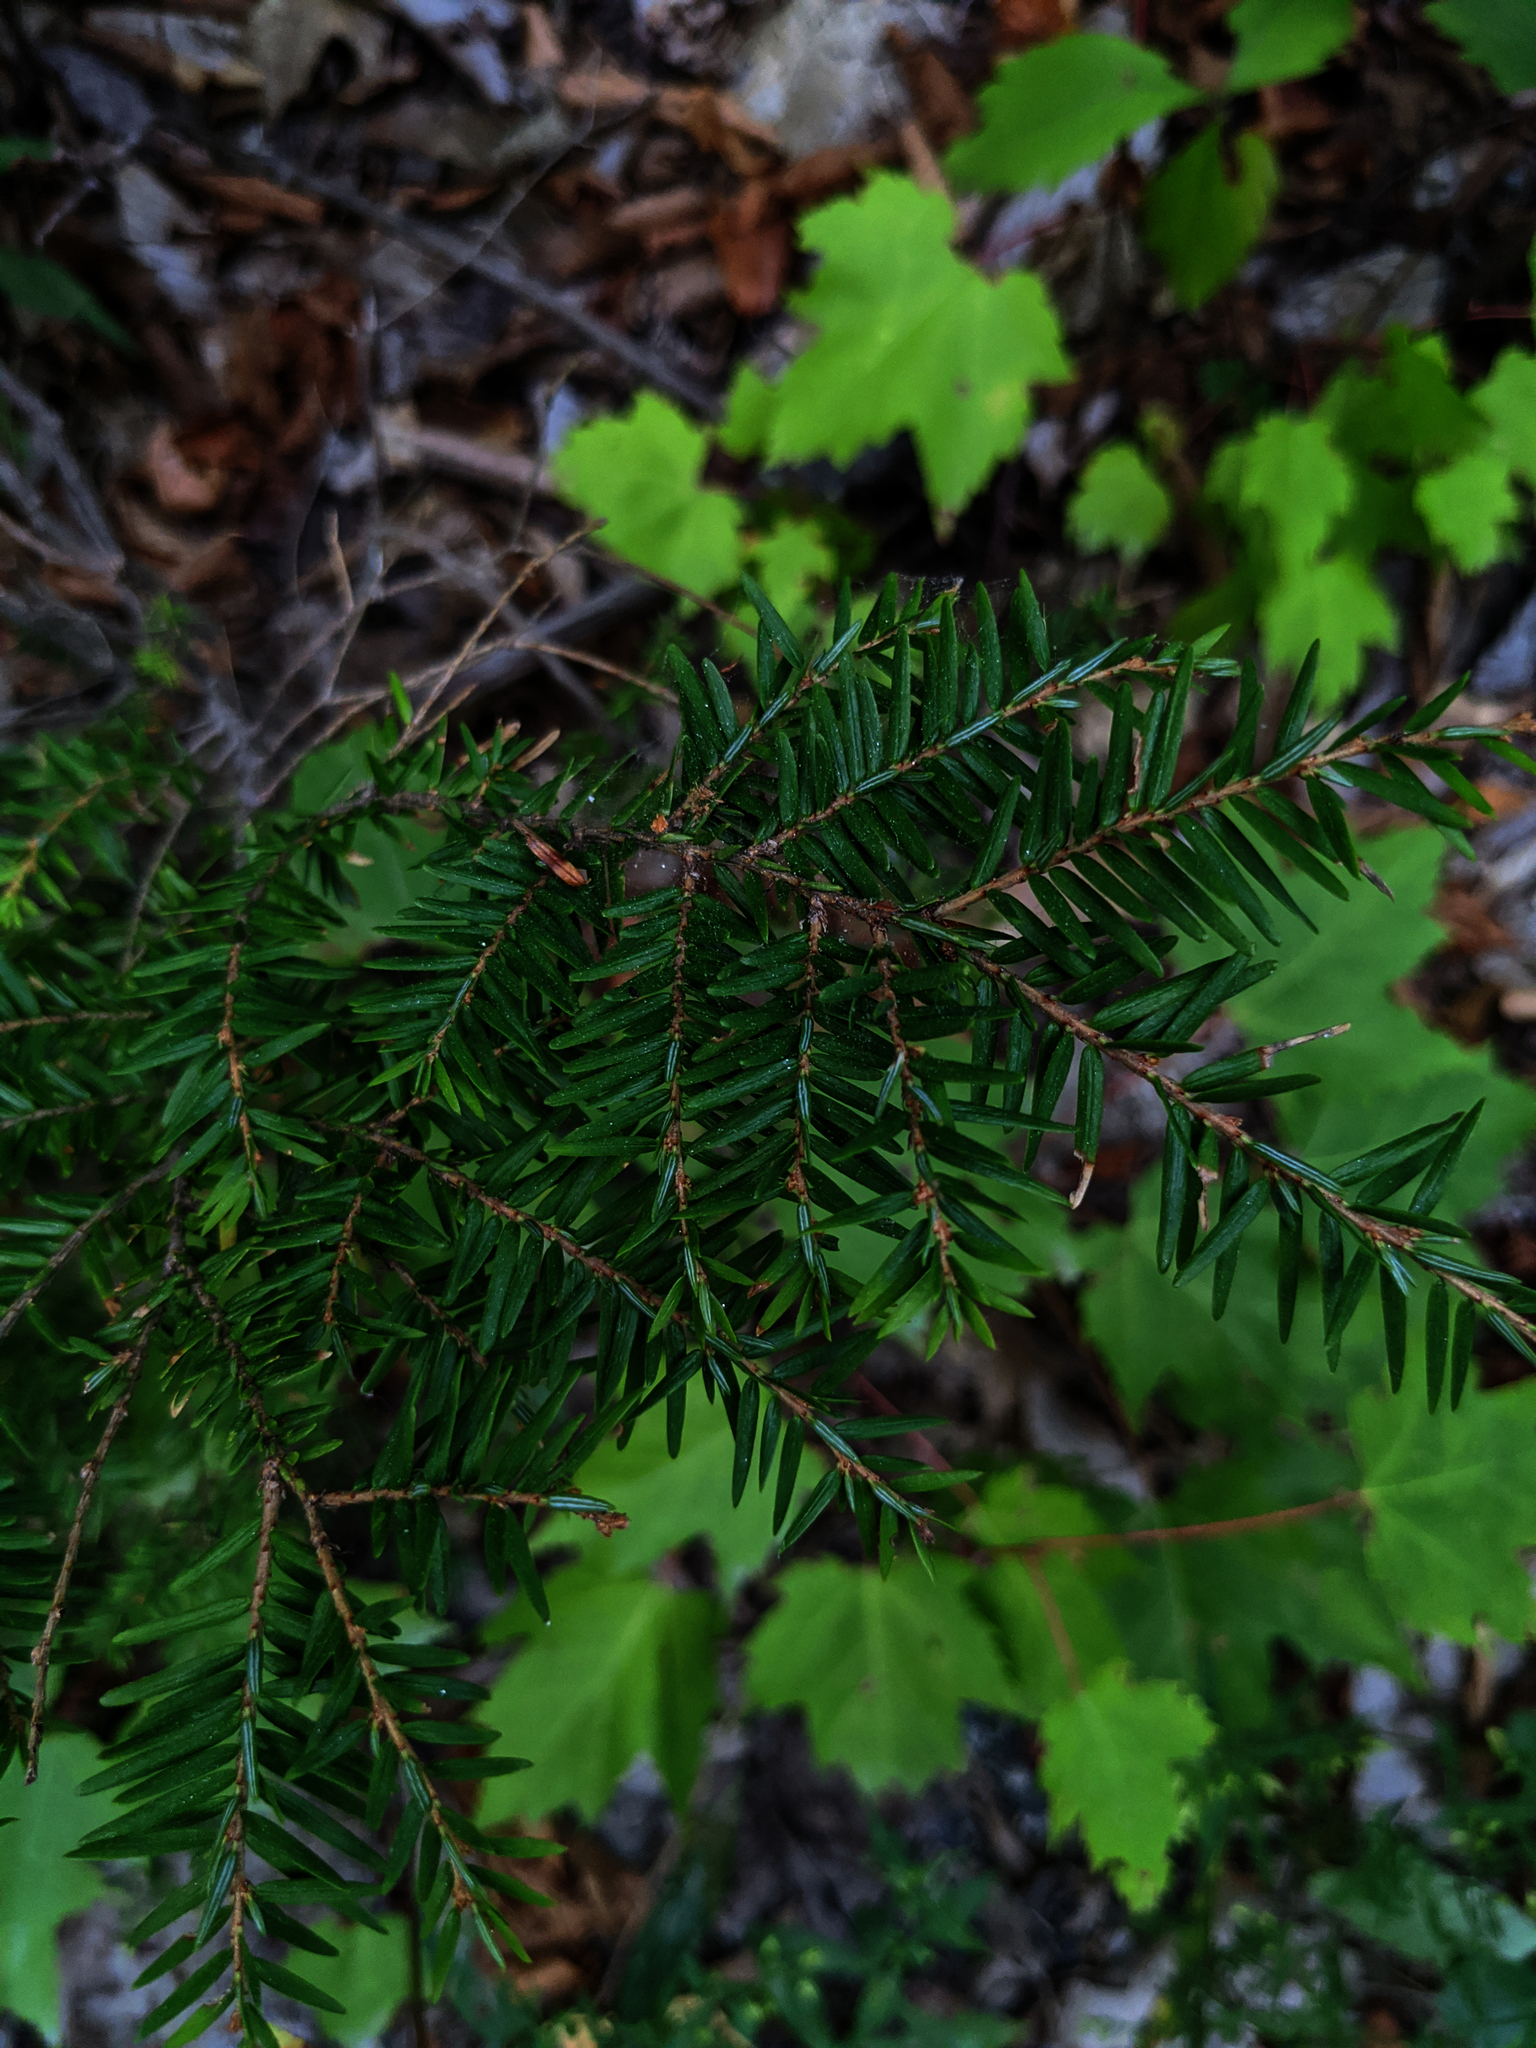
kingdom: Plantae
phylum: Tracheophyta
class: Pinopsida
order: Pinales
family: Pinaceae
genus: Tsuga
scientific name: Tsuga canadensis
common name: Eastern hemlock
